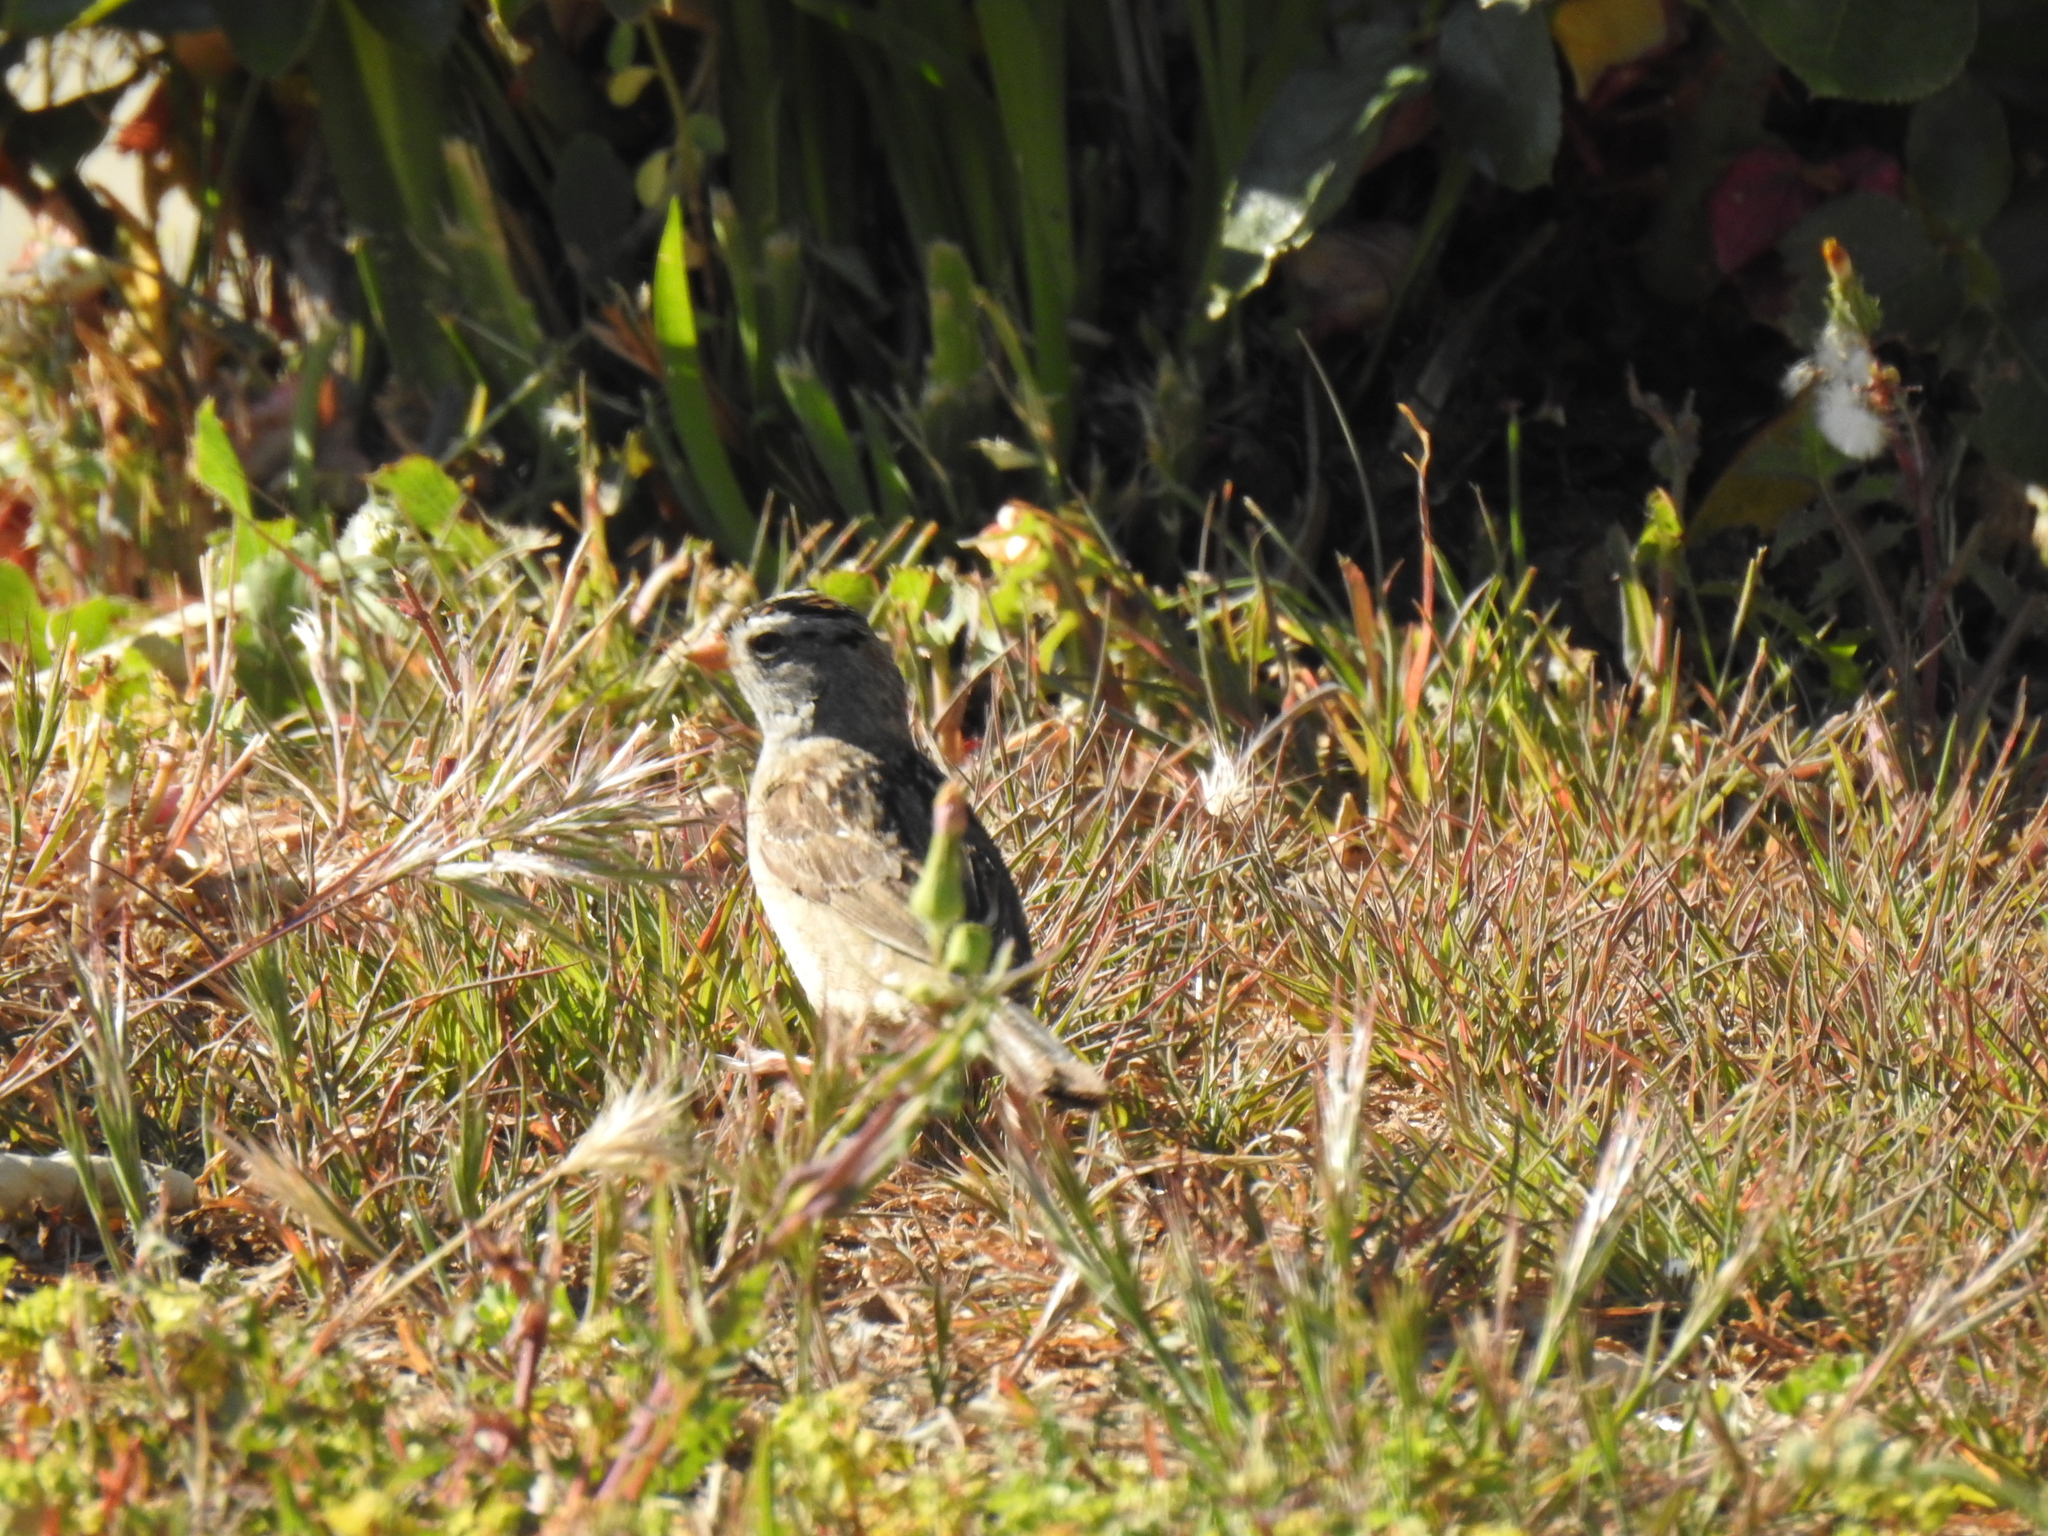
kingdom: Animalia
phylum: Chordata
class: Aves
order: Passeriformes
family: Passerellidae
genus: Zonotrichia
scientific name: Zonotrichia leucophrys
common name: White-crowned sparrow
